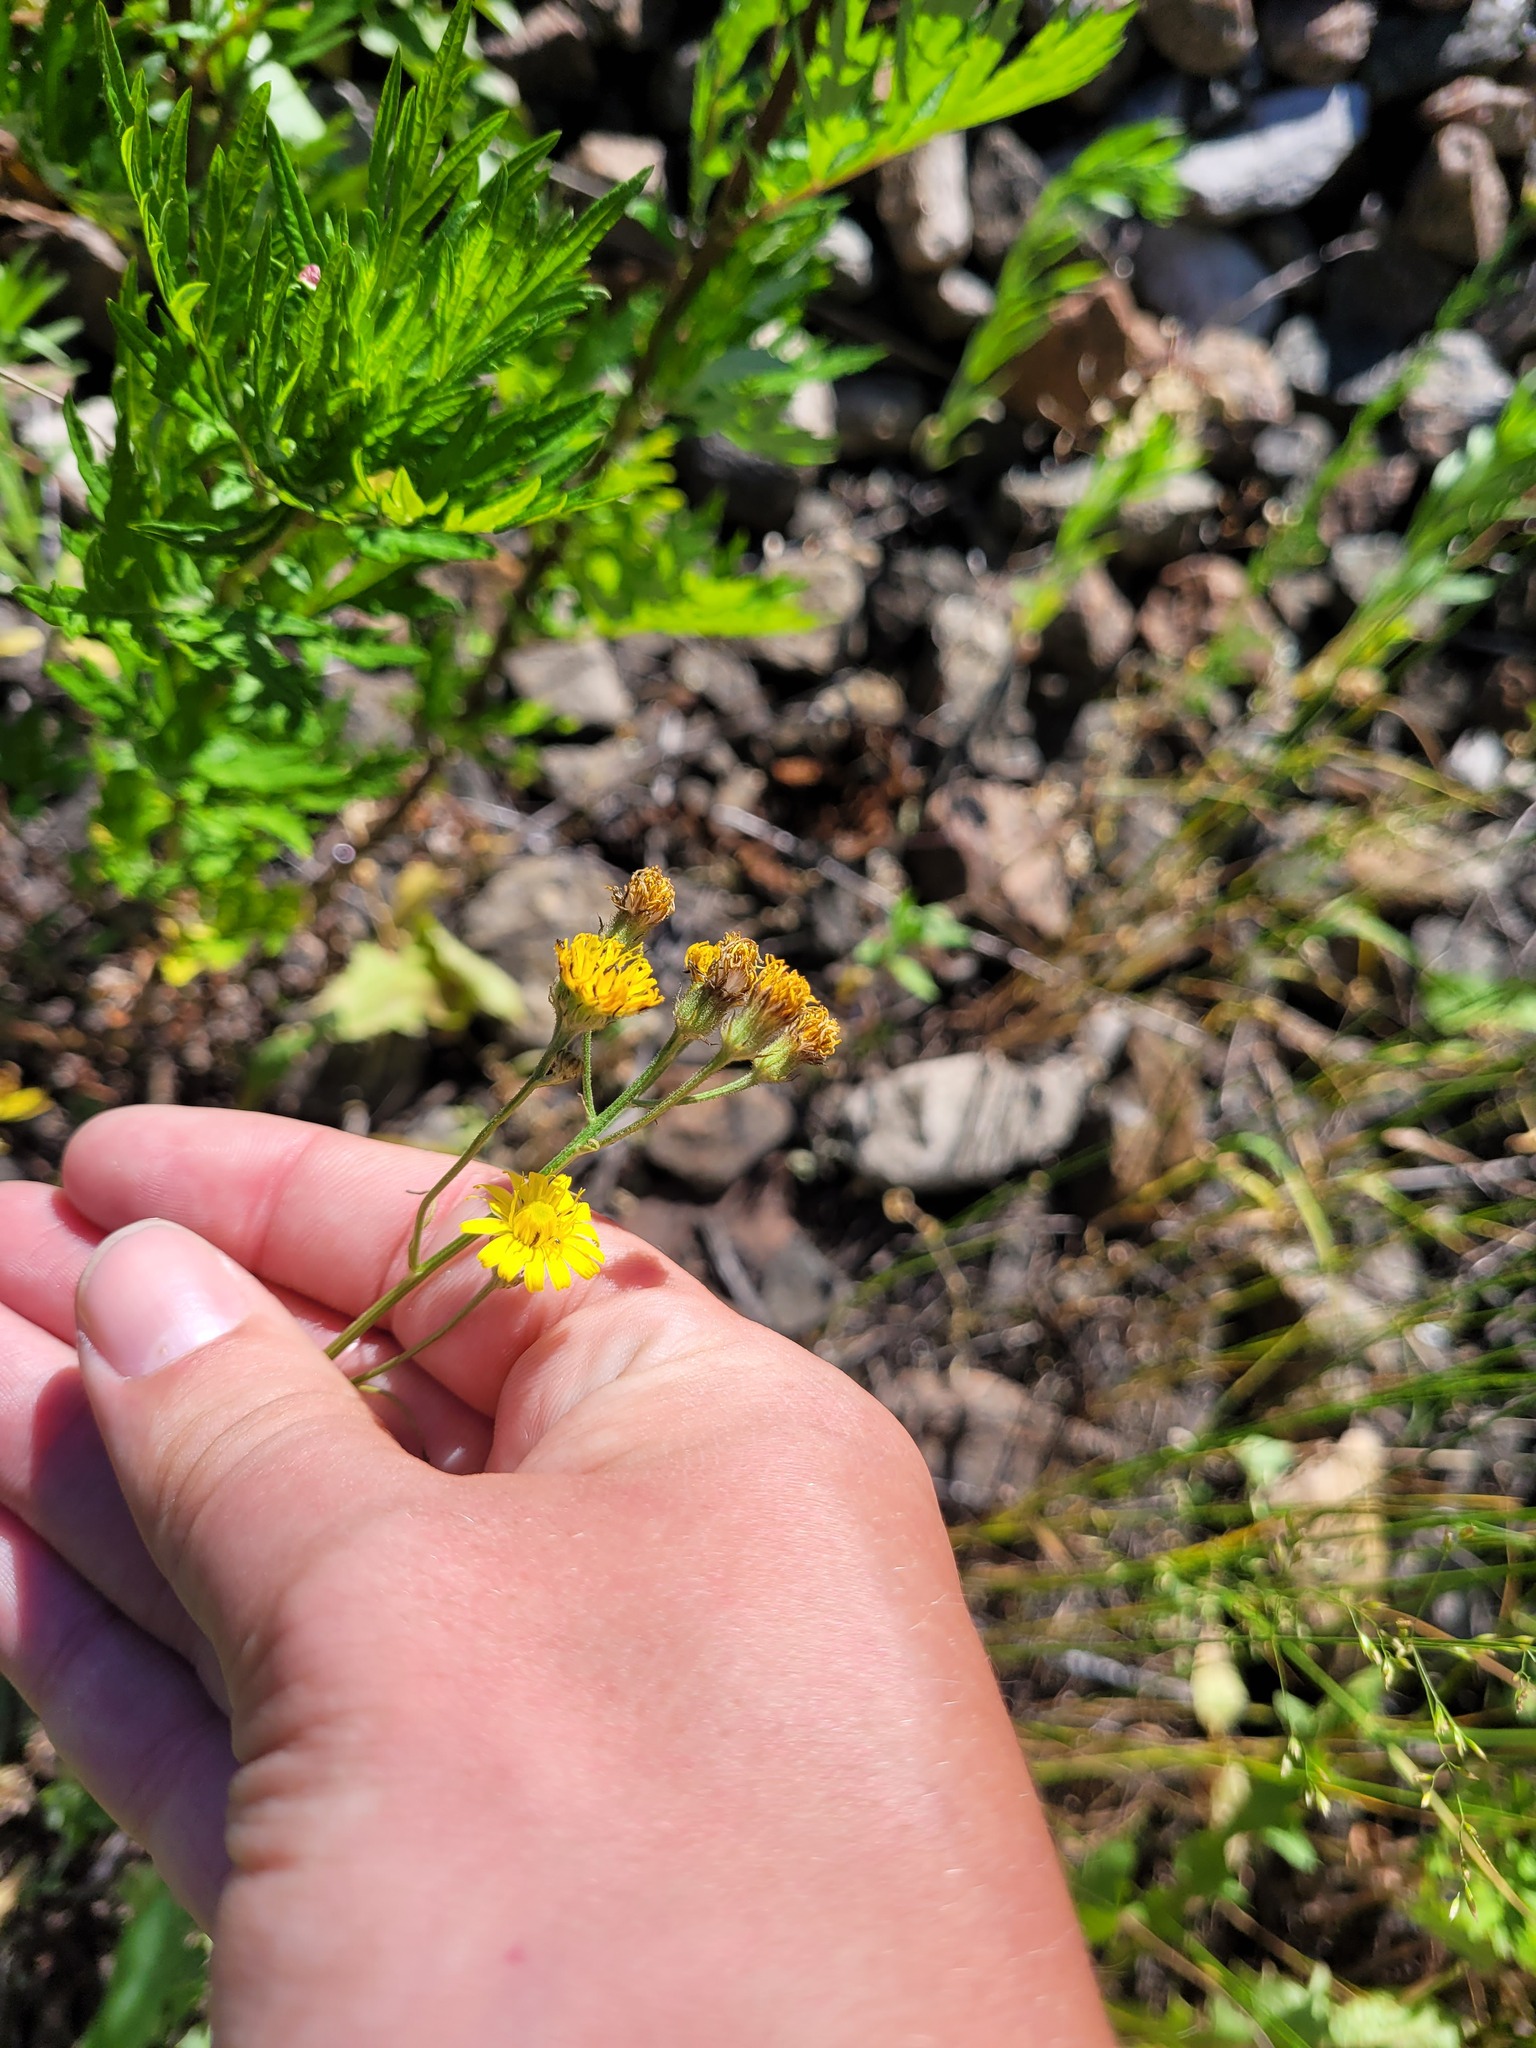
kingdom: Plantae
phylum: Tracheophyta
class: Magnoliopsida
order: Asterales
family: Asteraceae
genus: Crepis
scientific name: Crepis tectorum
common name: Narrow-leaved hawk's-beard
